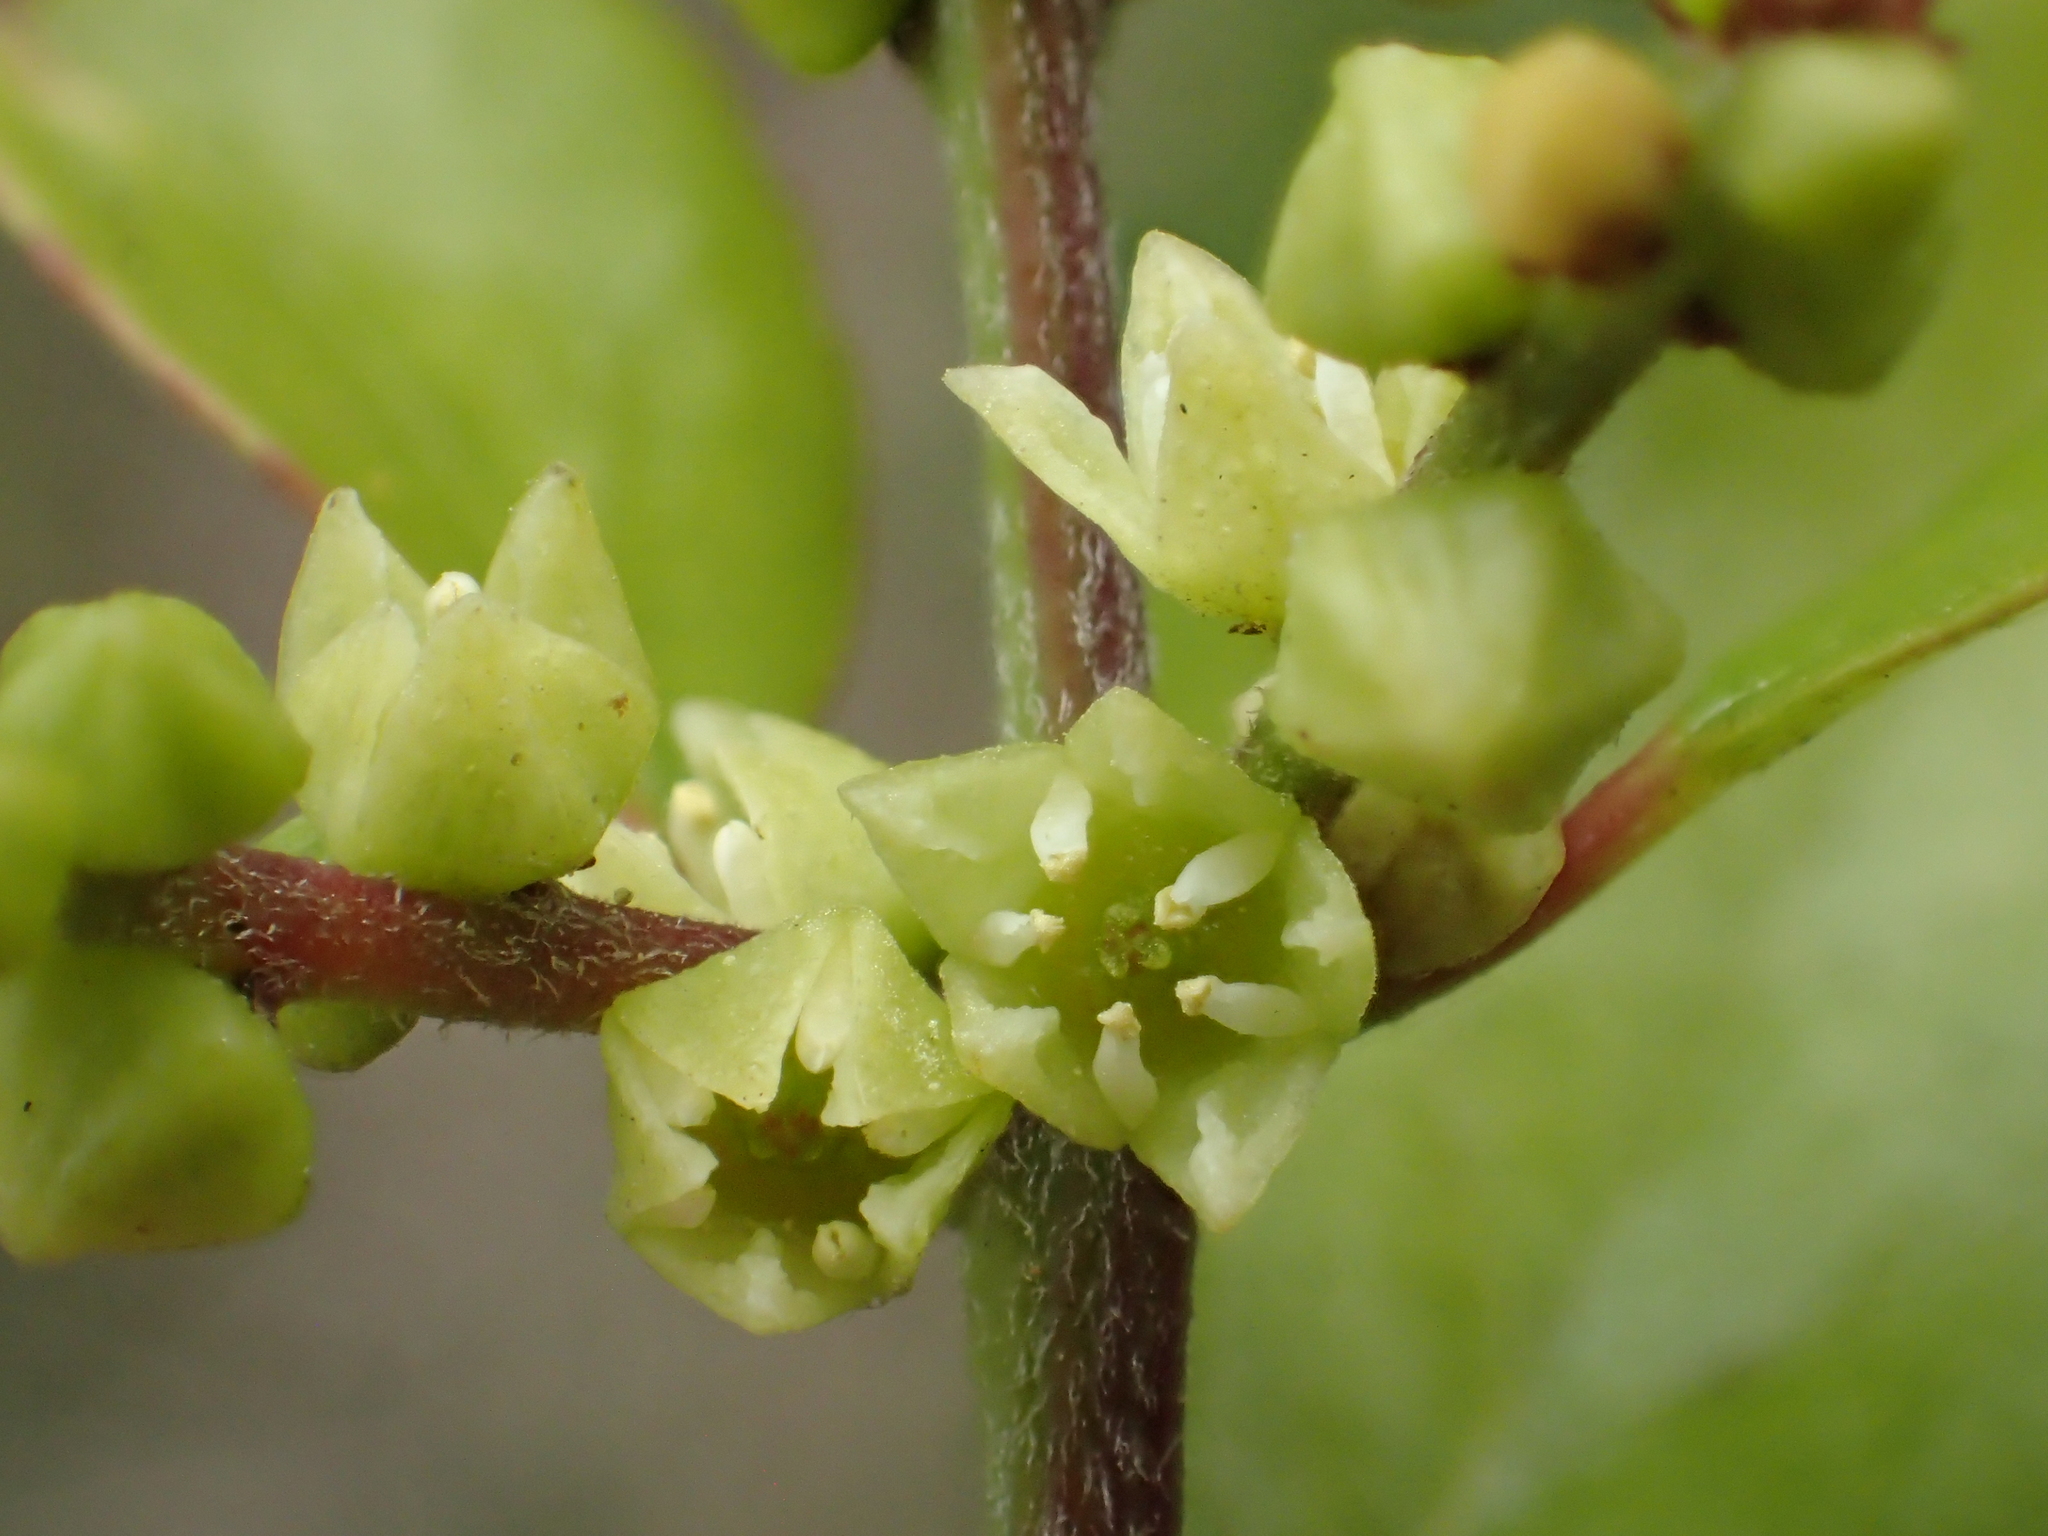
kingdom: Plantae
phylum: Tracheophyta
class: Magnoliopsida
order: Rosales
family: Rhamnaceae
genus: Sageretia
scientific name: Sageretia thea
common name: Pauper's-tea
